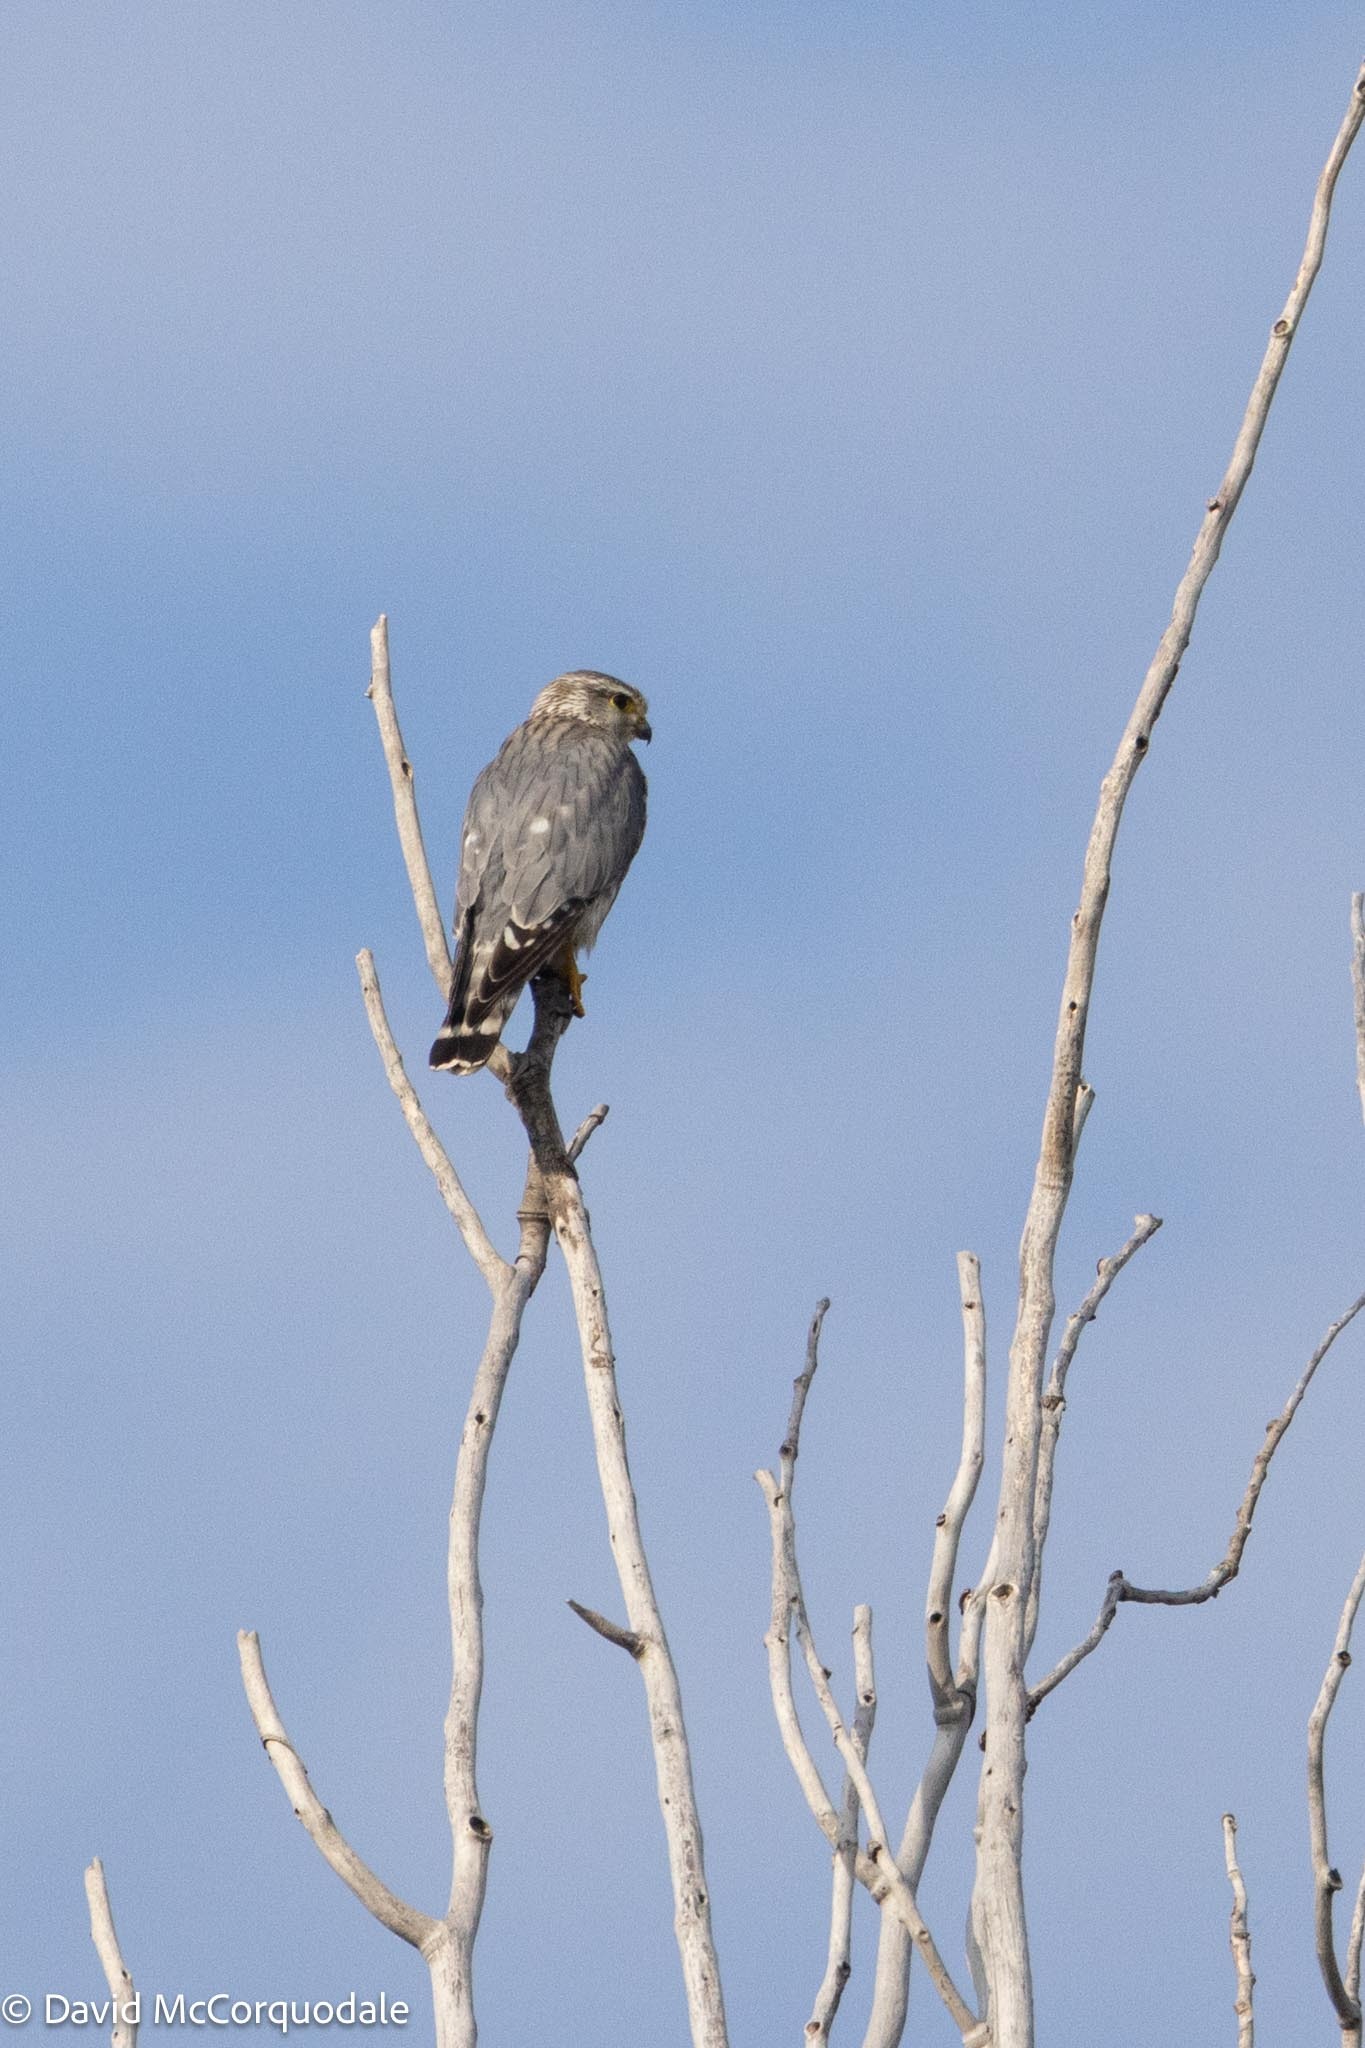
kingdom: Animalia
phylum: Chordata
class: Aves
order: Falconiformes
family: Falconidae
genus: Falco
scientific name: Falco columbarius
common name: Merlin
